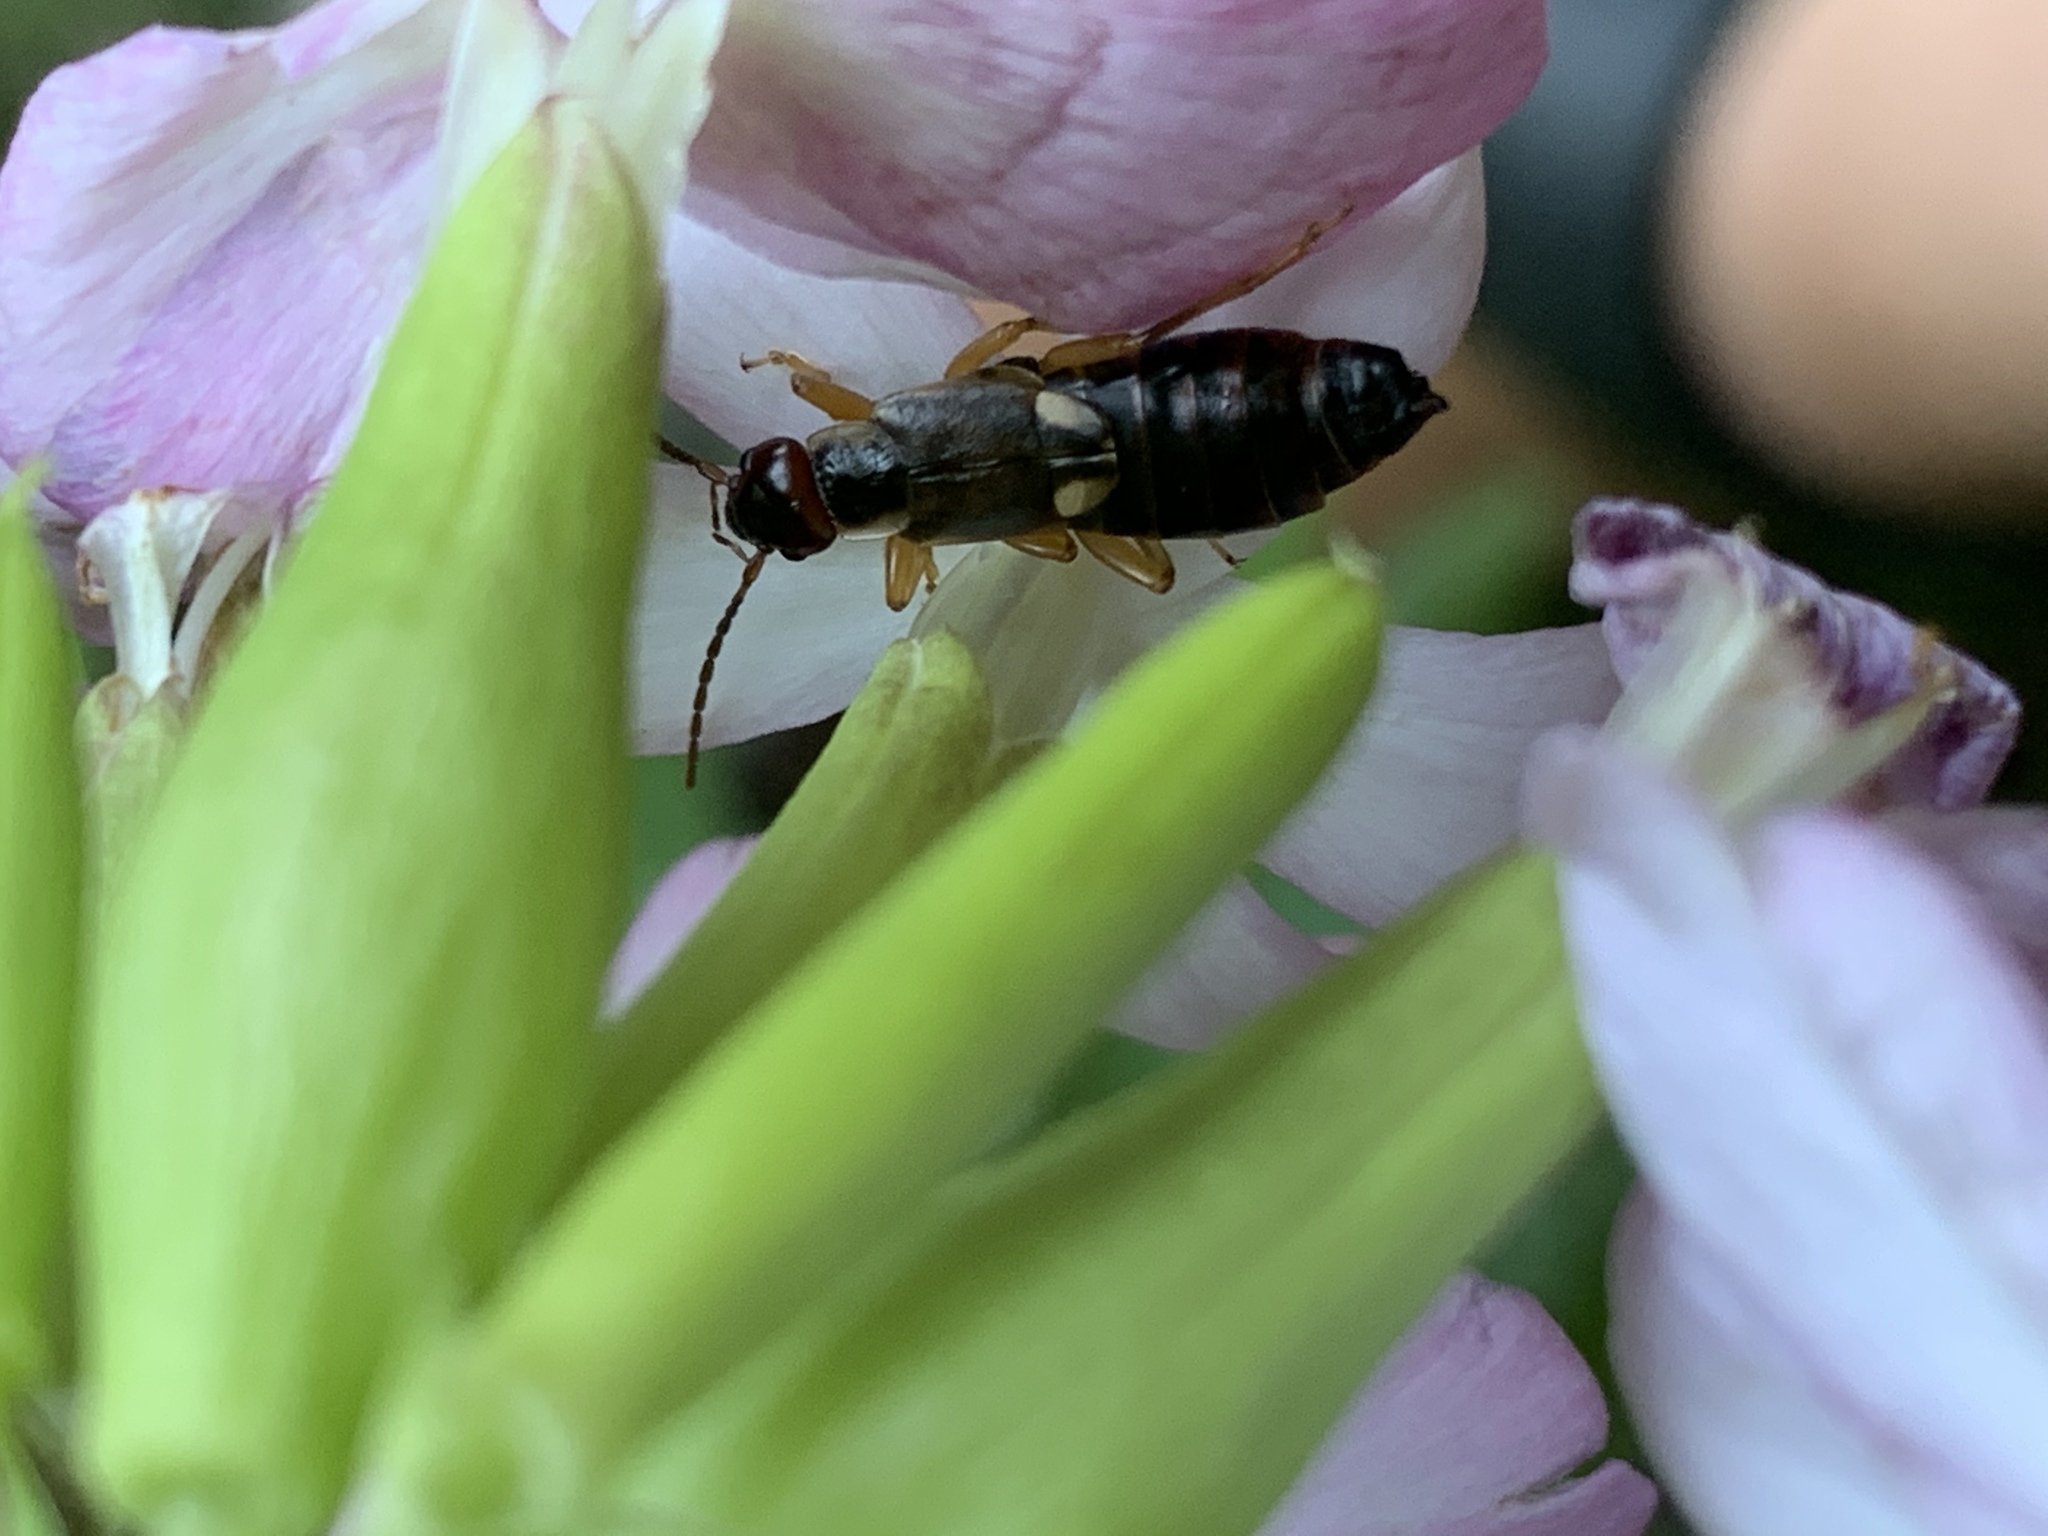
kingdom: Animalia
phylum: Arthropoda
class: Insecta
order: Dermaptera
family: Forficulidae
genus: Forficula
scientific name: Forficula
